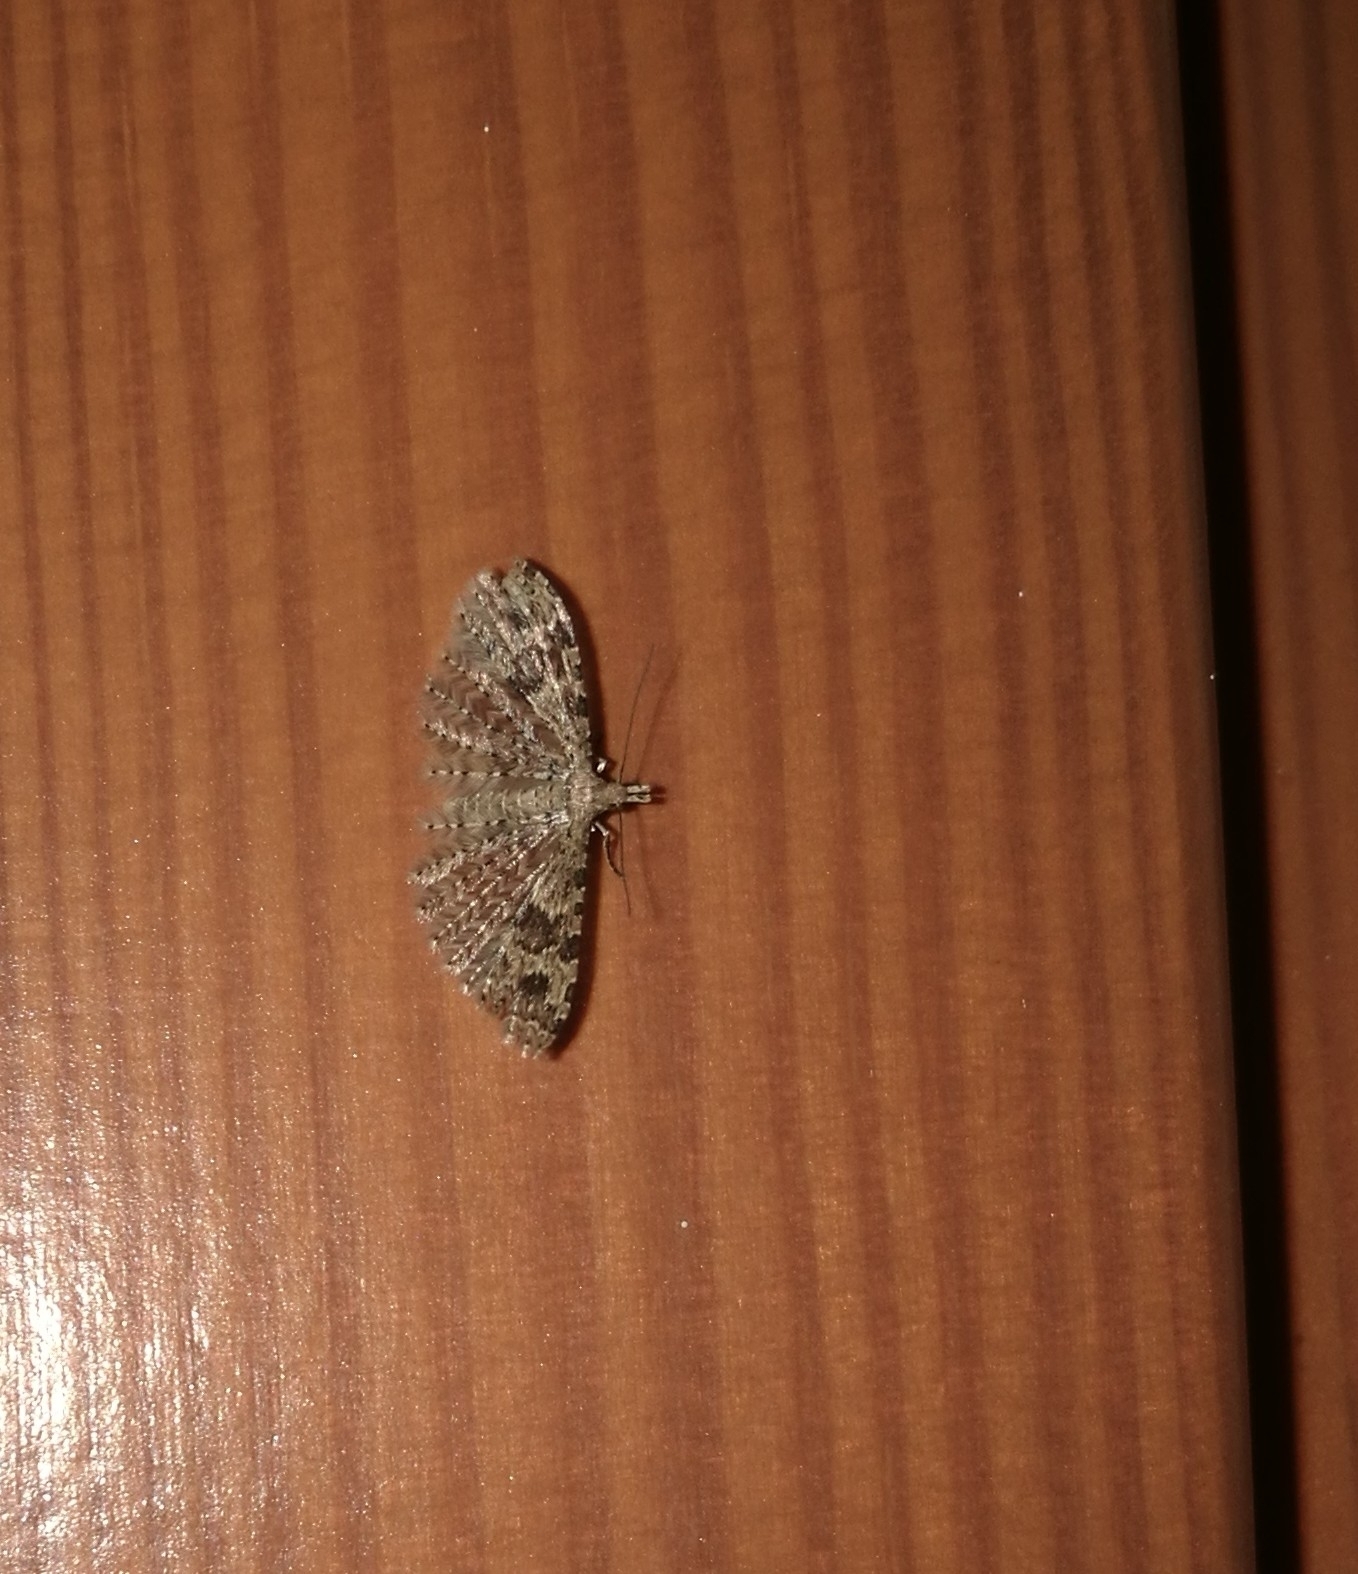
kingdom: Animalia
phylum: Arthropoda
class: Insecta
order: Lepidoptera
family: Alucitidae
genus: Alucita
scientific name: Alucita hexadactyla
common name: Twenty-plume moth
